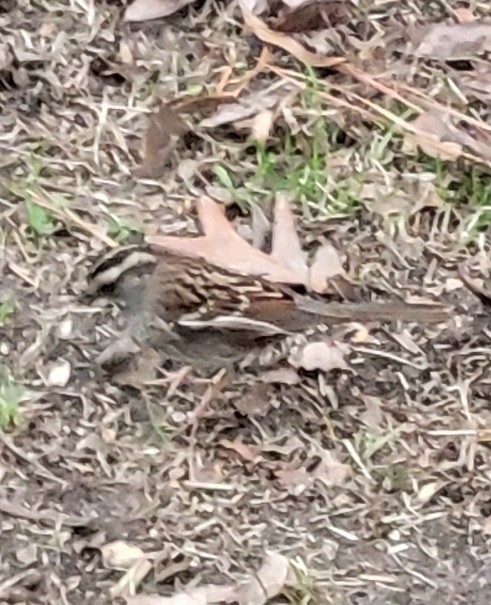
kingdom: Animalia
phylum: Chordata
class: Aves
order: Passeriformes
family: Passerellidae
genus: Zonotrichia
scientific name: Zonotrichia albicollis
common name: White-throated sparrow
